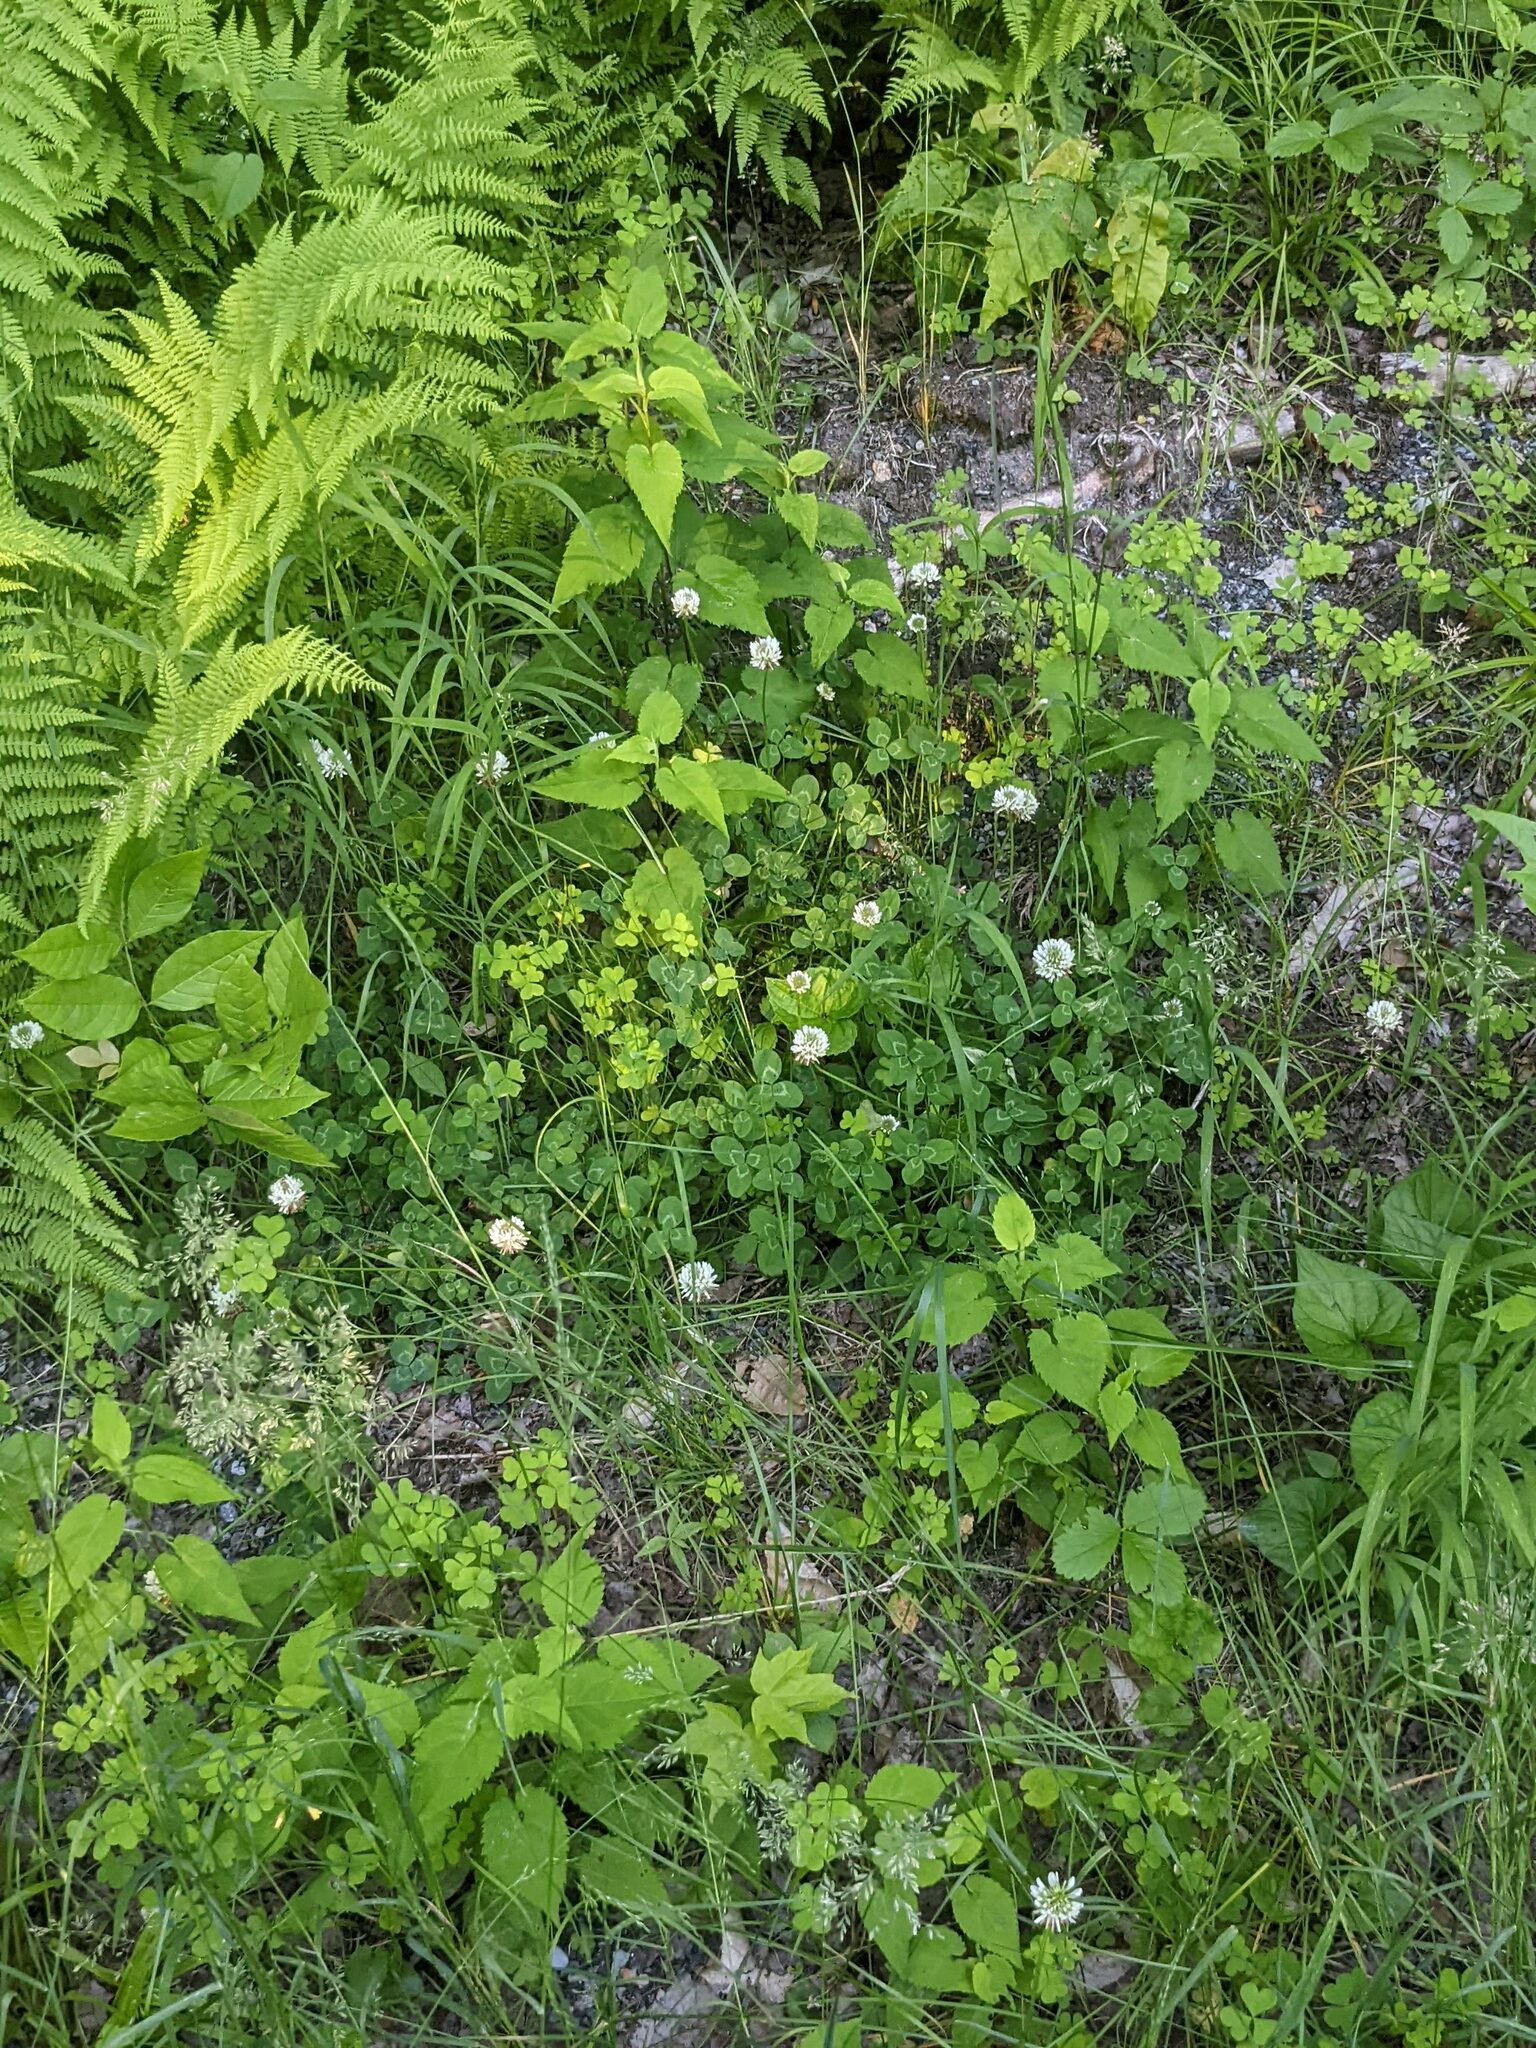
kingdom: Plantae
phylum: Tracheophyta
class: Magnoliopsida
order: Fabales
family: Fabaceae
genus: Trifolium
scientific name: Trifolium repens
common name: White clover
